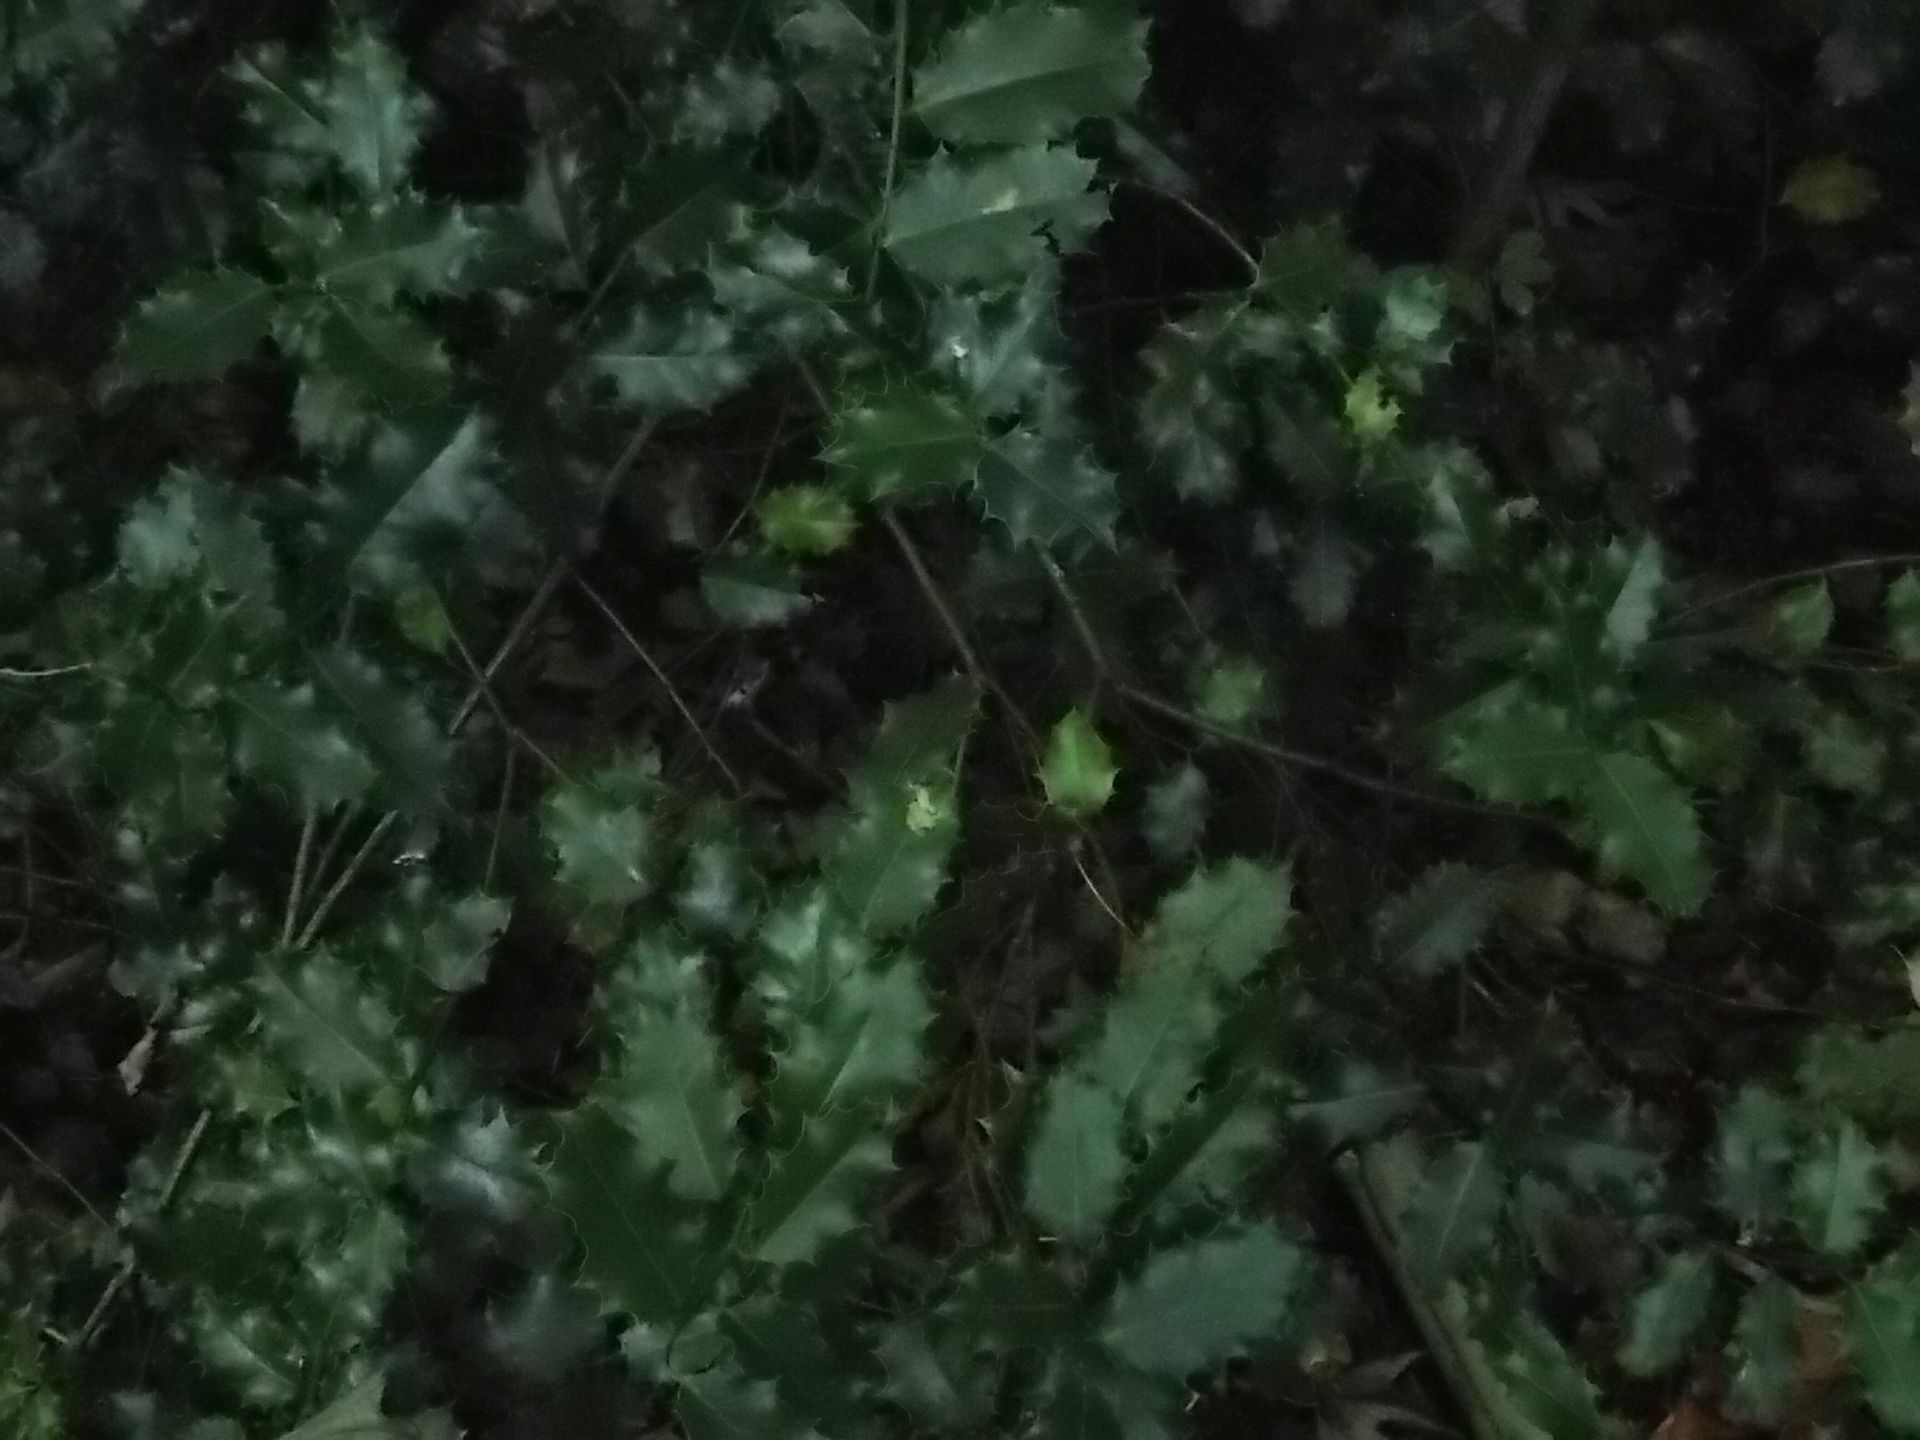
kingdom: Plantae
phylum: Tracheophyta
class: Magnoliopsida
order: Aquifoliales
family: Aquifoliaceae
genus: Ilex
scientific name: Ilex aquifolium
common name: English holly
